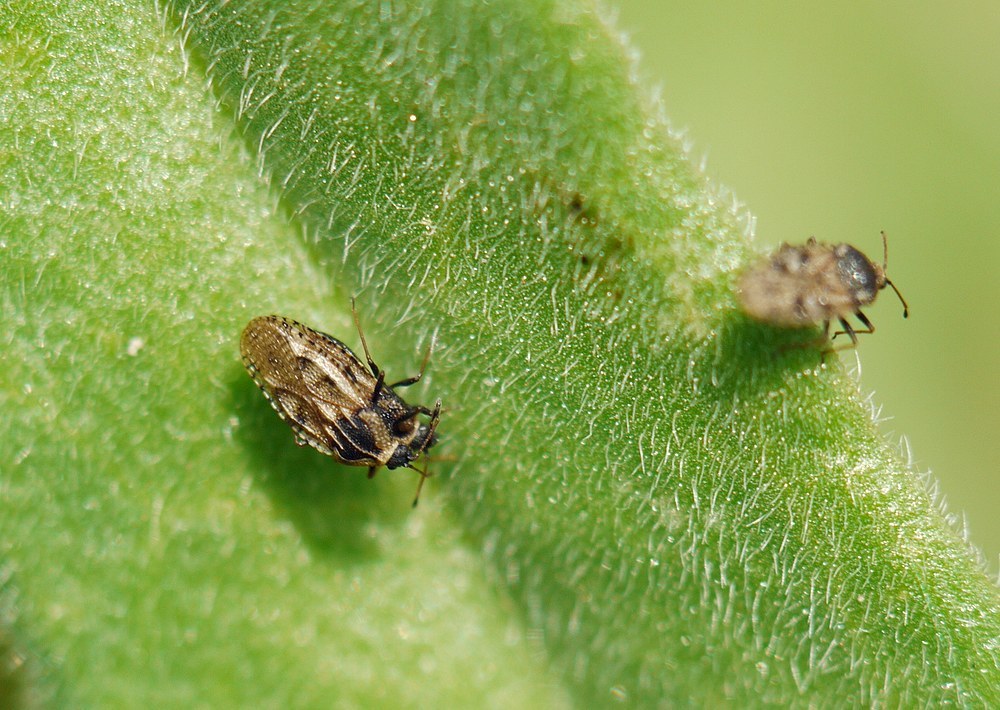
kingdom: Animalia
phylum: Arthropoda
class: Insecta
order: Hemiptera
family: Tingidae
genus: Dictyla
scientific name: Dictyla echii
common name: Lace bug
